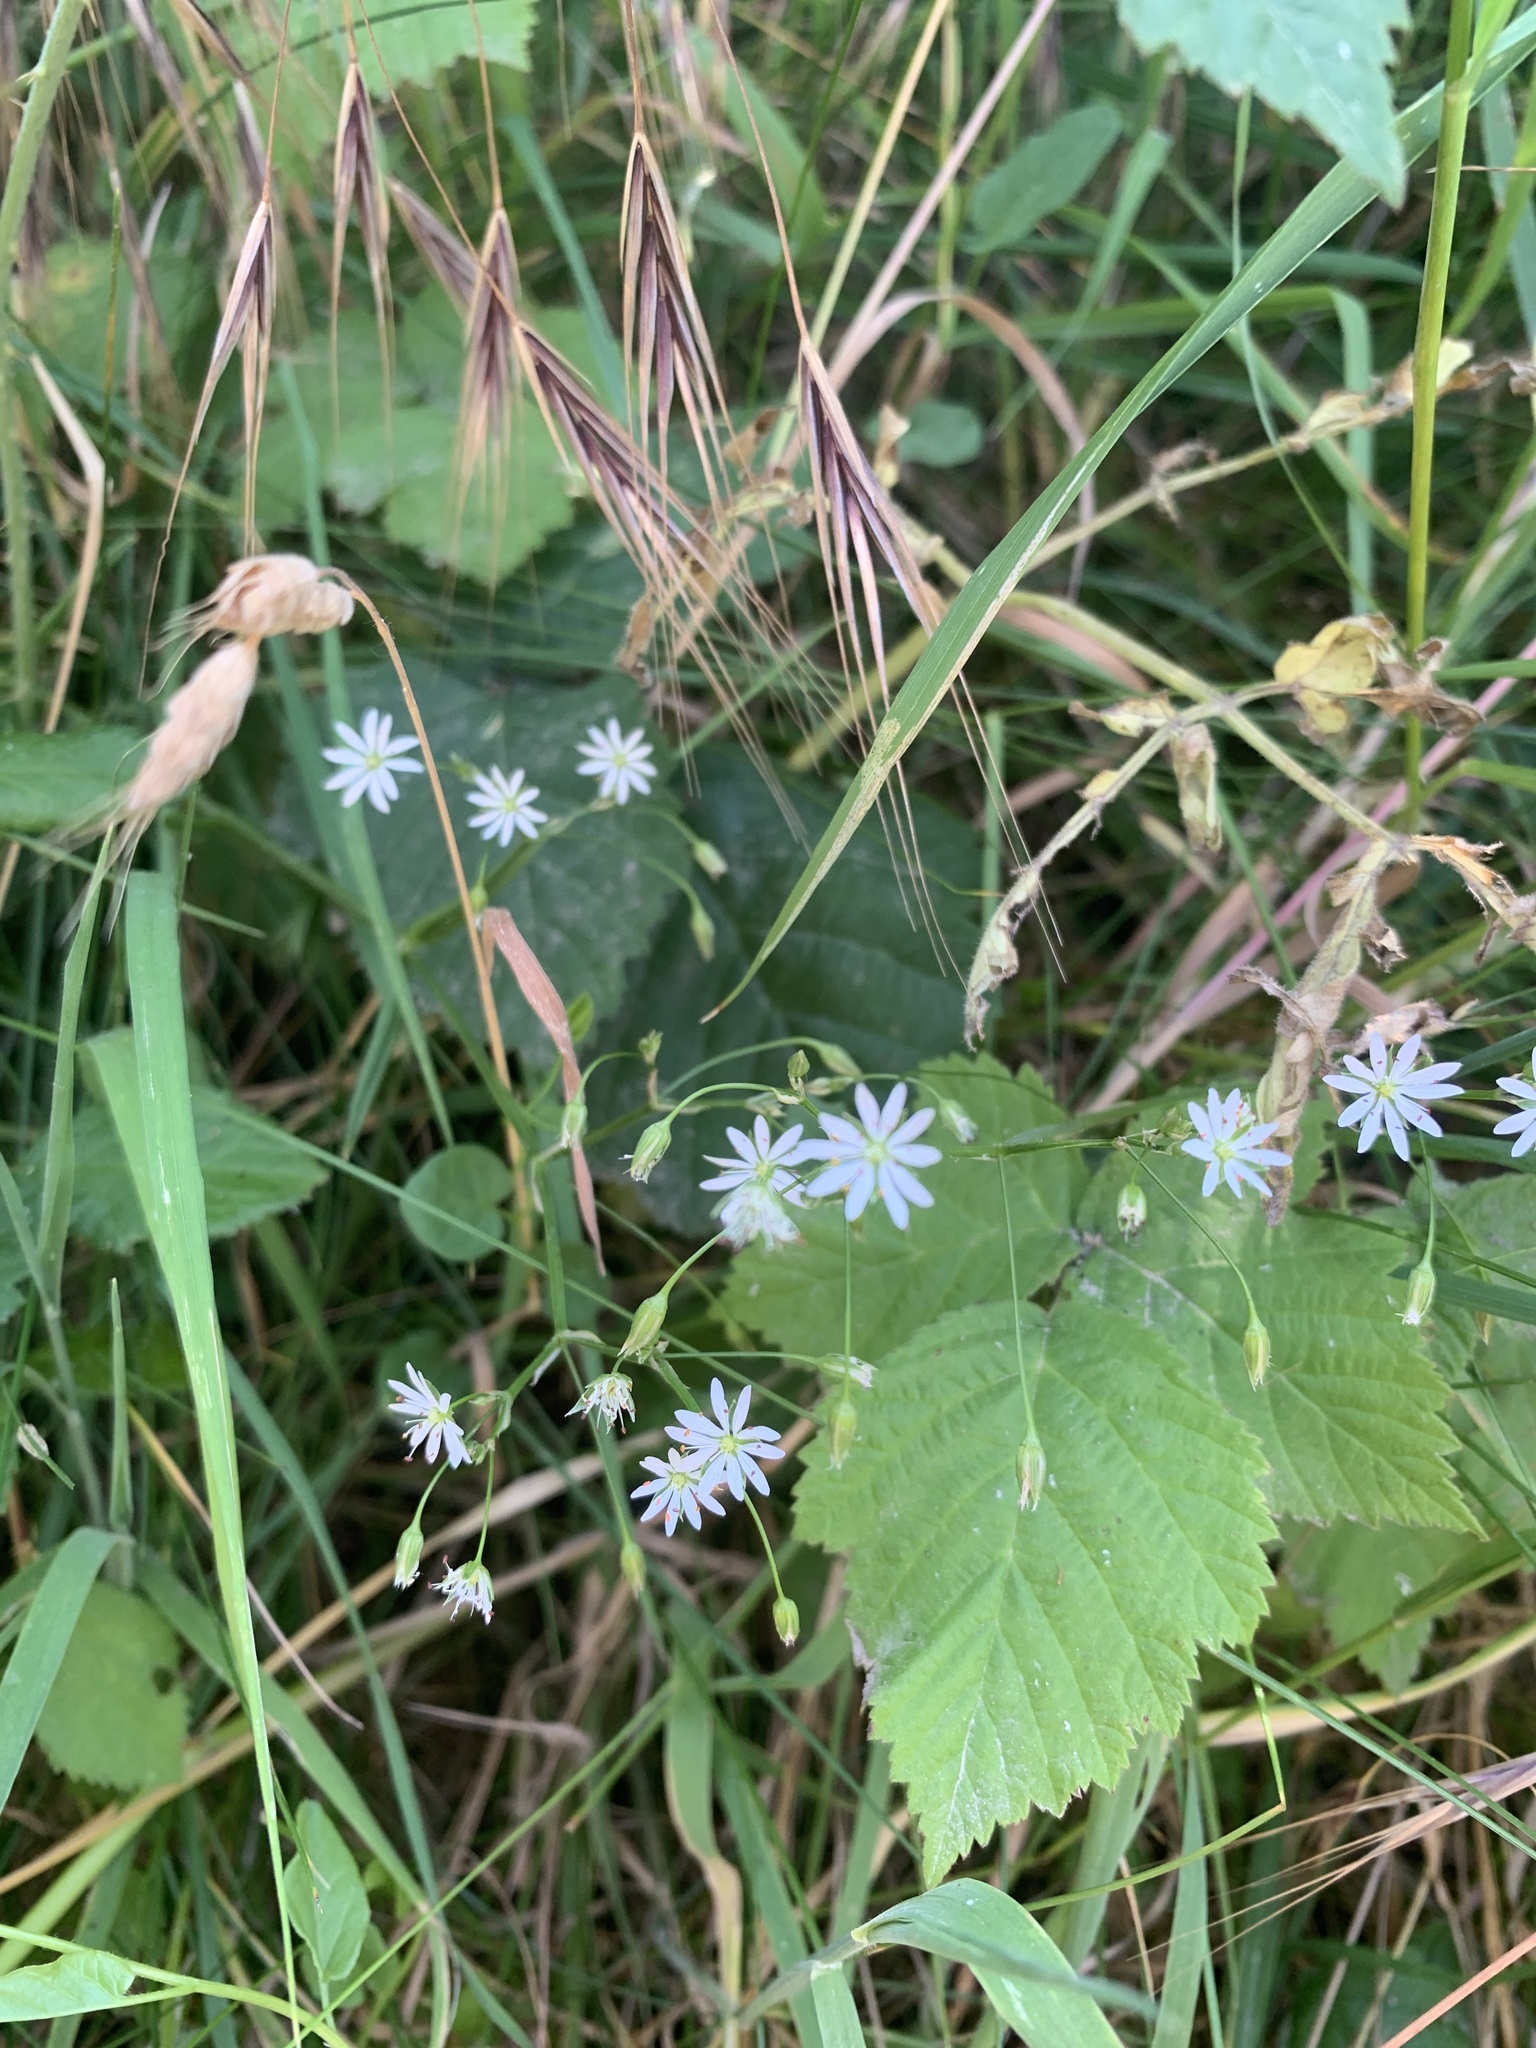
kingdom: Plantae
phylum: Tracheophyta
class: Magnoliopsida
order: Caryophyllales
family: Caryophyllaceae
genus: Stellaria
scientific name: Stellaria graminea
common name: Grass-like starwort
